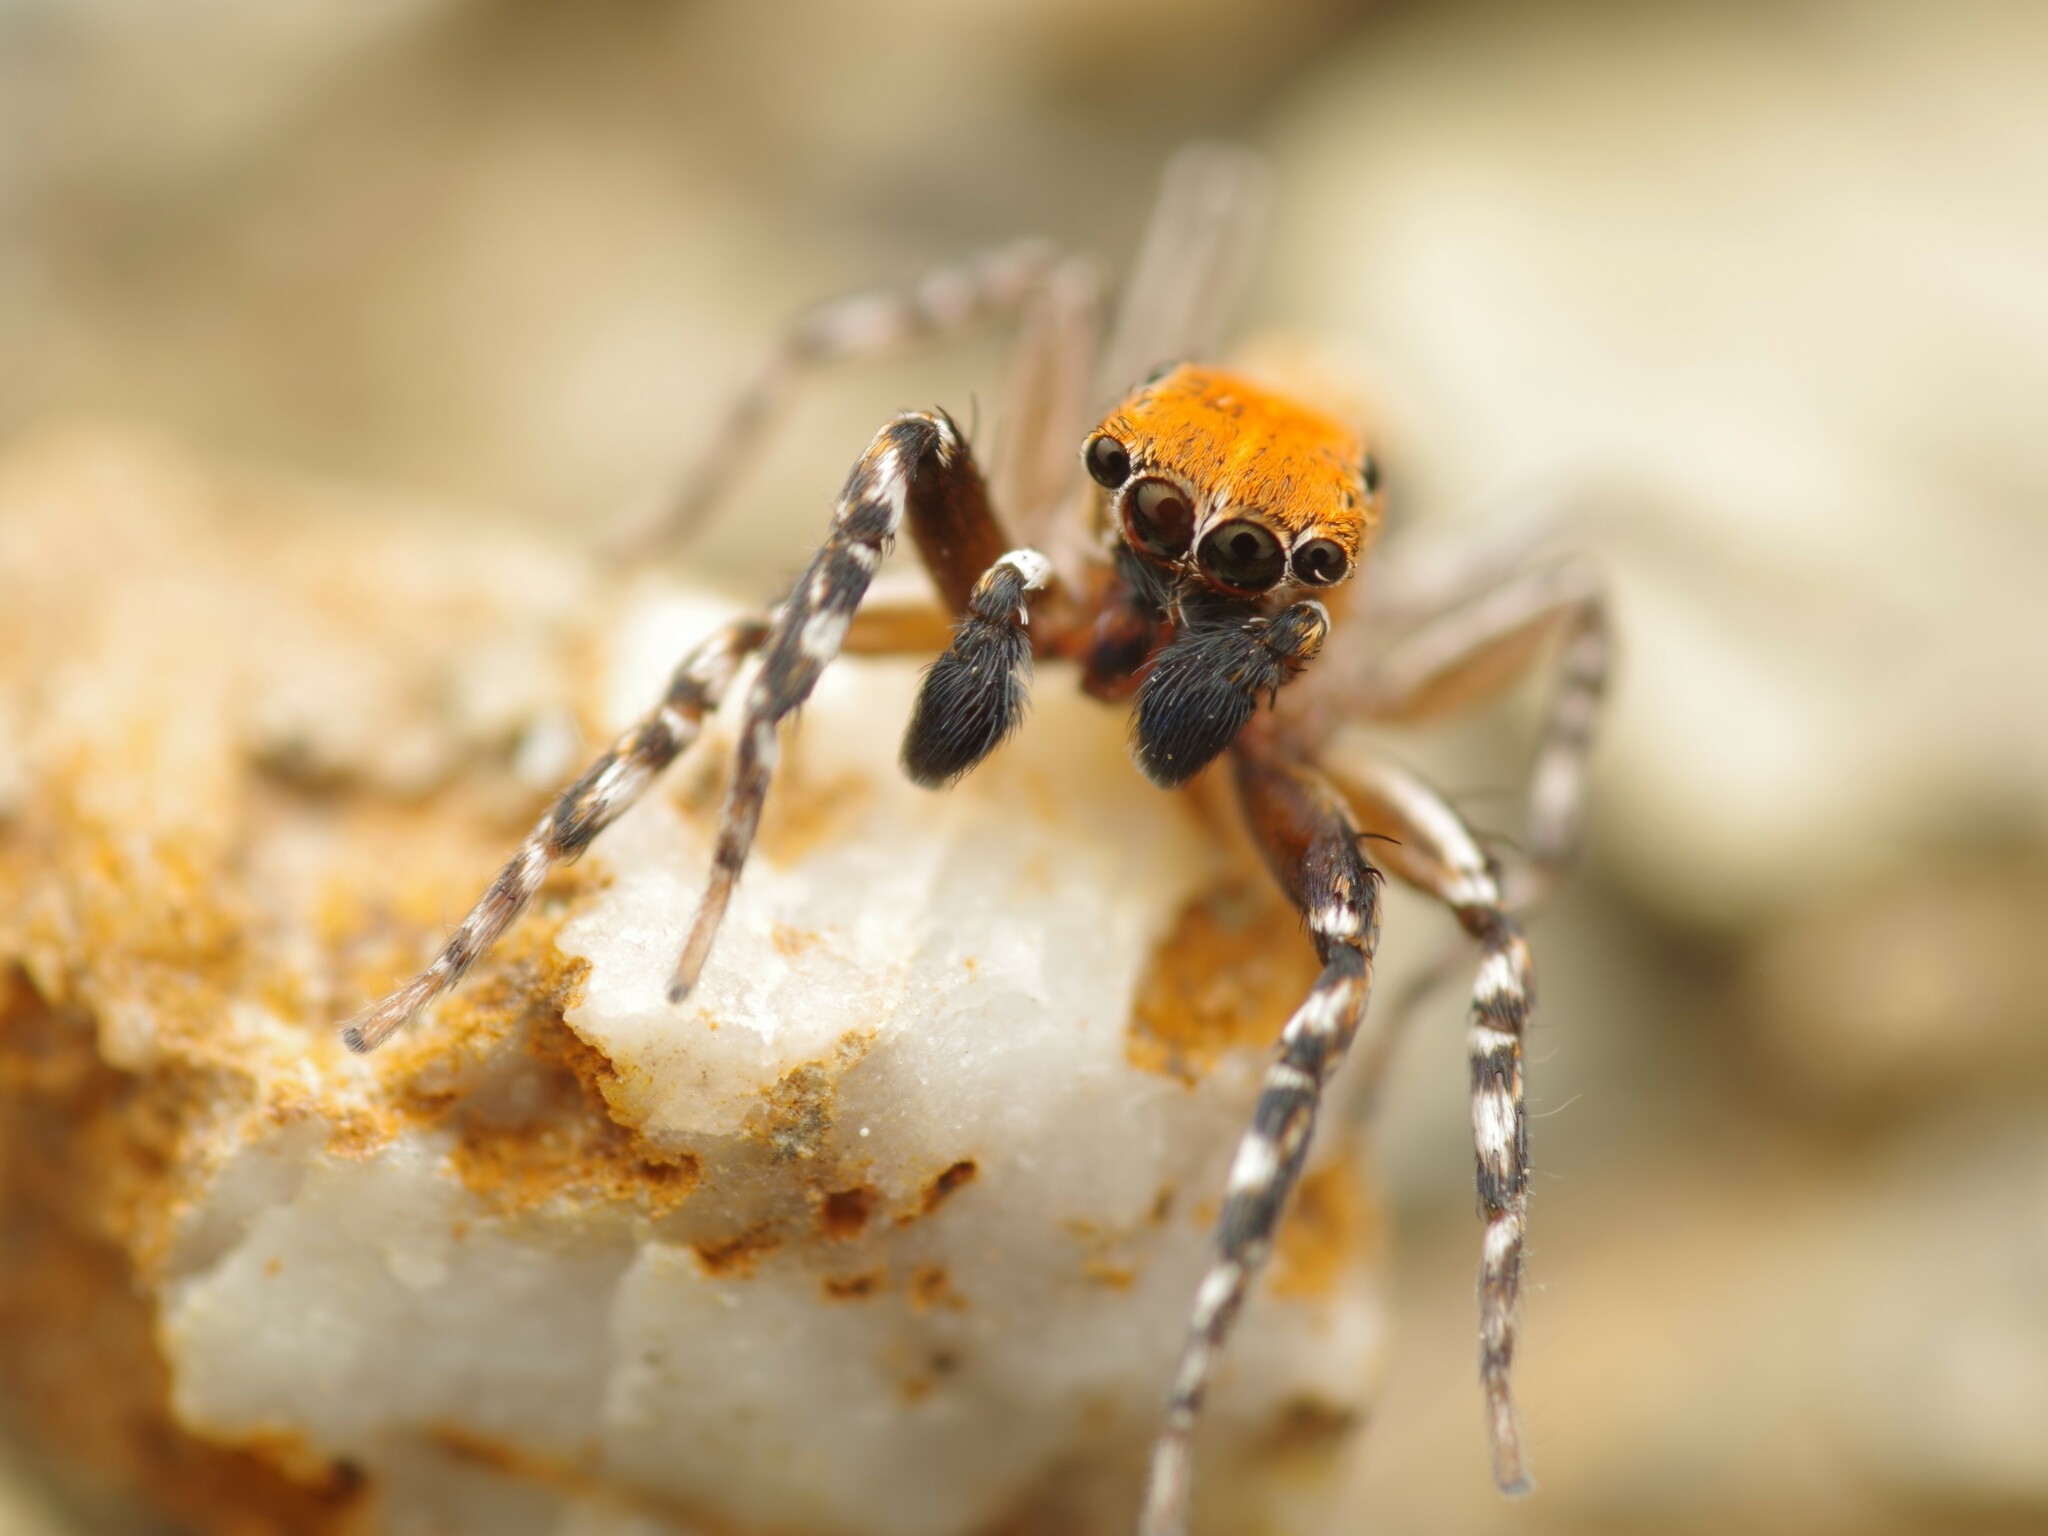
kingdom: Animalia
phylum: Arthropoda
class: Arachnida
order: Araneae
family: Salticidae
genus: Cyrba
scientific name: Cyrba algerina
